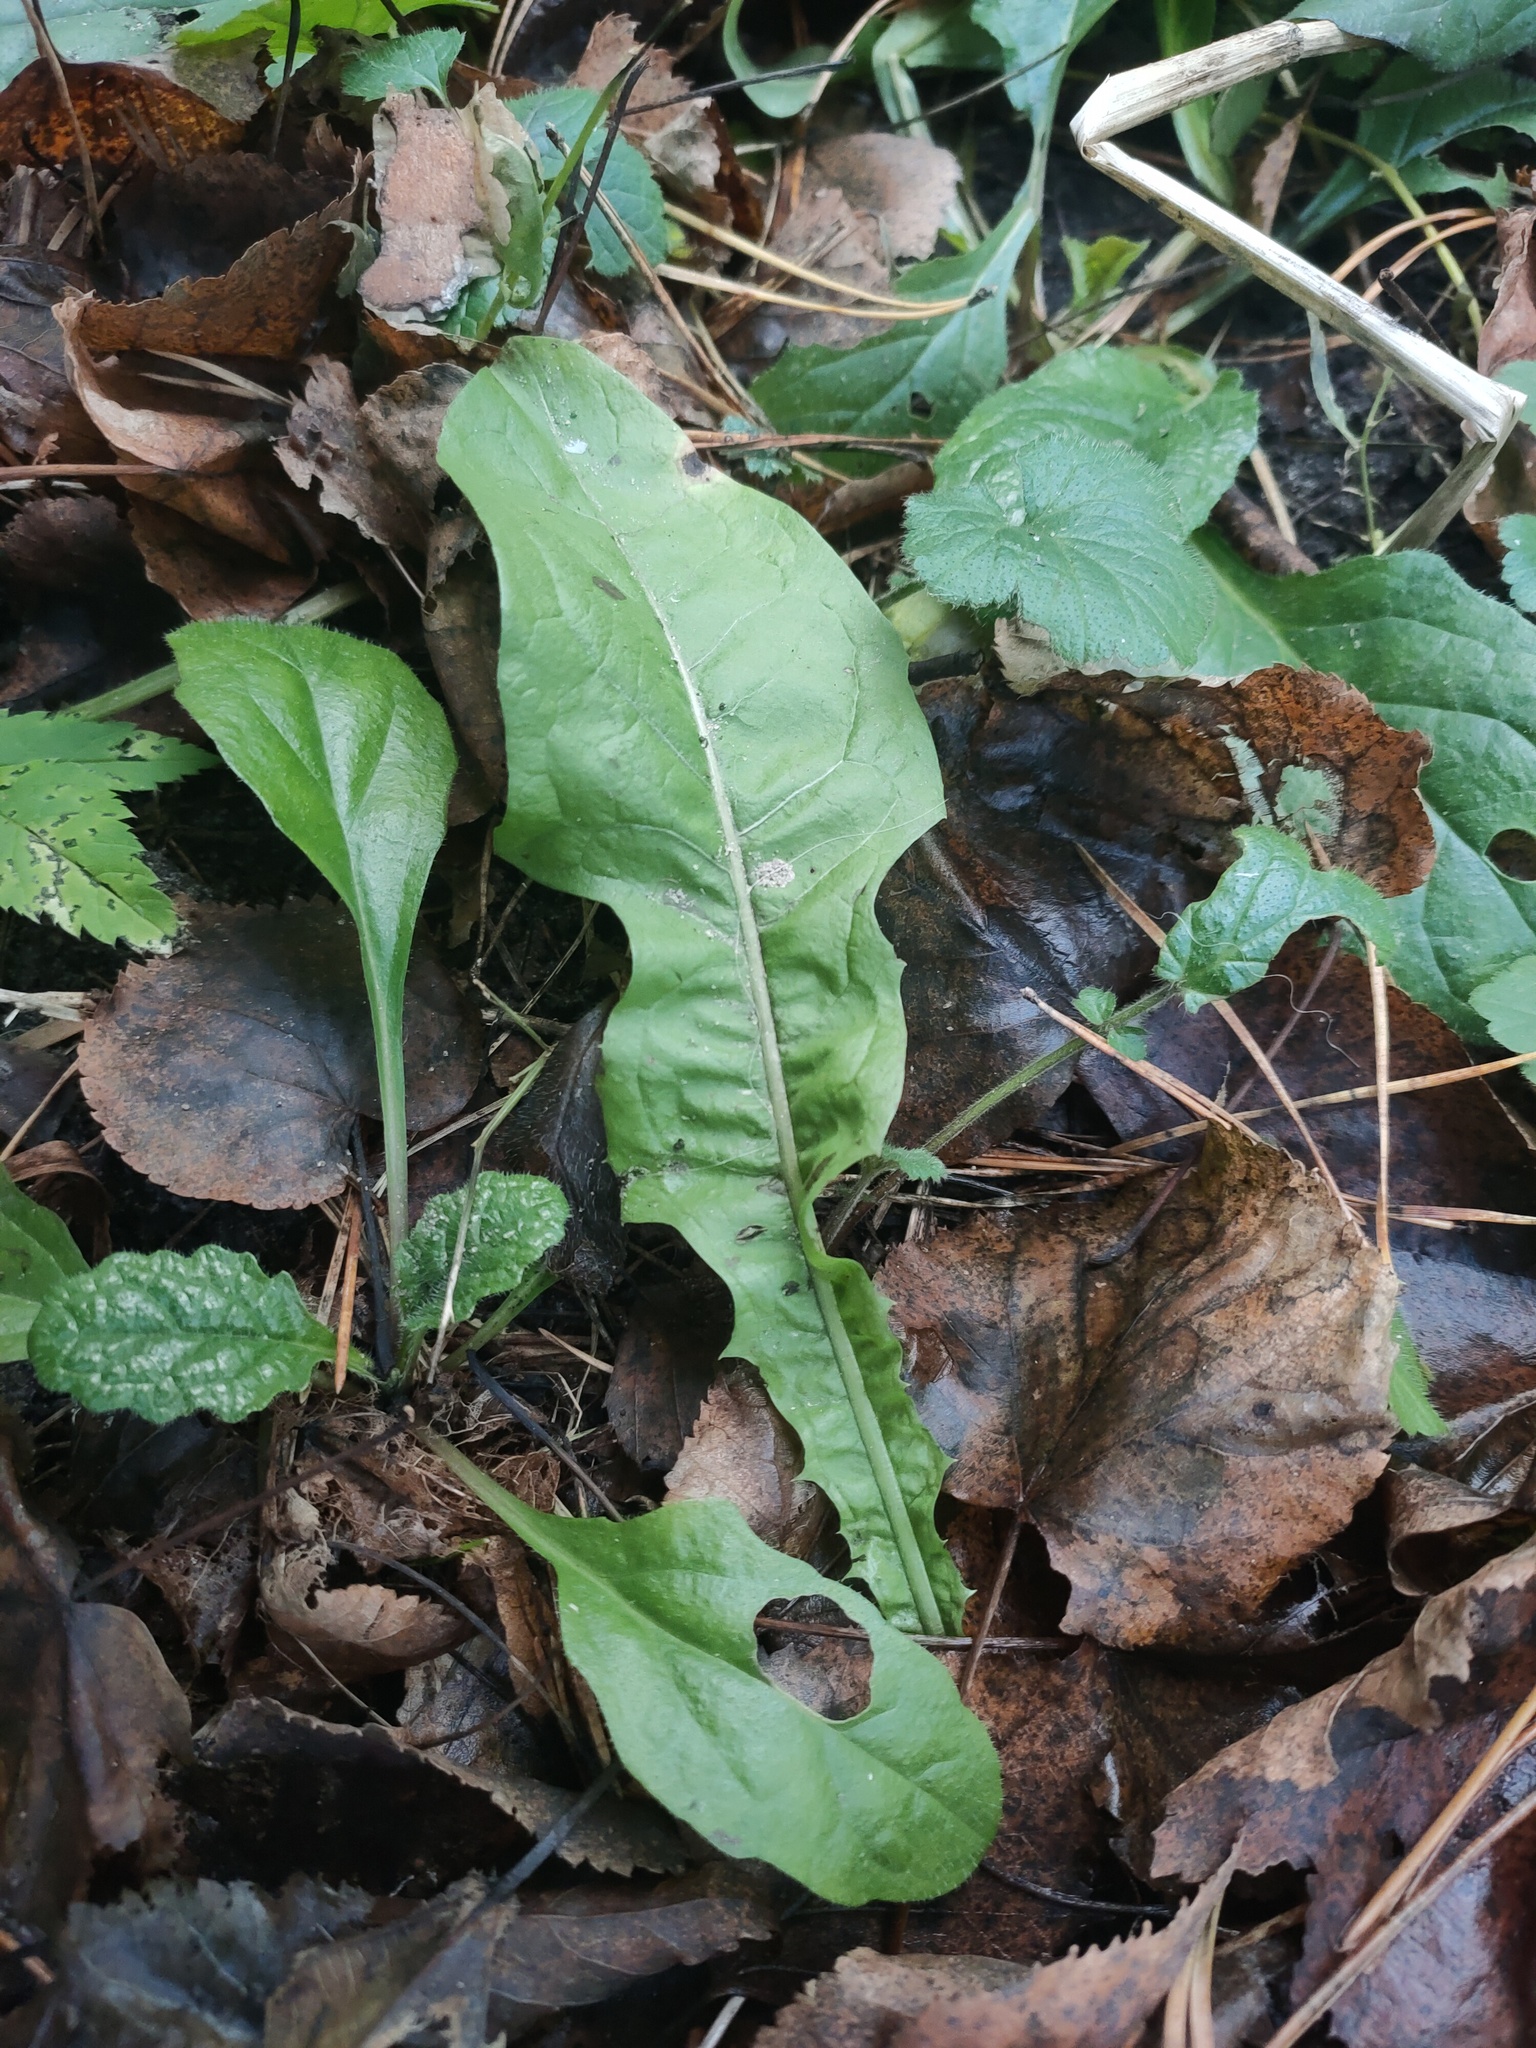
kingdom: Plantae
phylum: Tracheophyta
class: Magnoliopsida
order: Asterales
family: Asteraceae
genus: Taraxacum
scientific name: Taraxacum officinale
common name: Common dandelion
